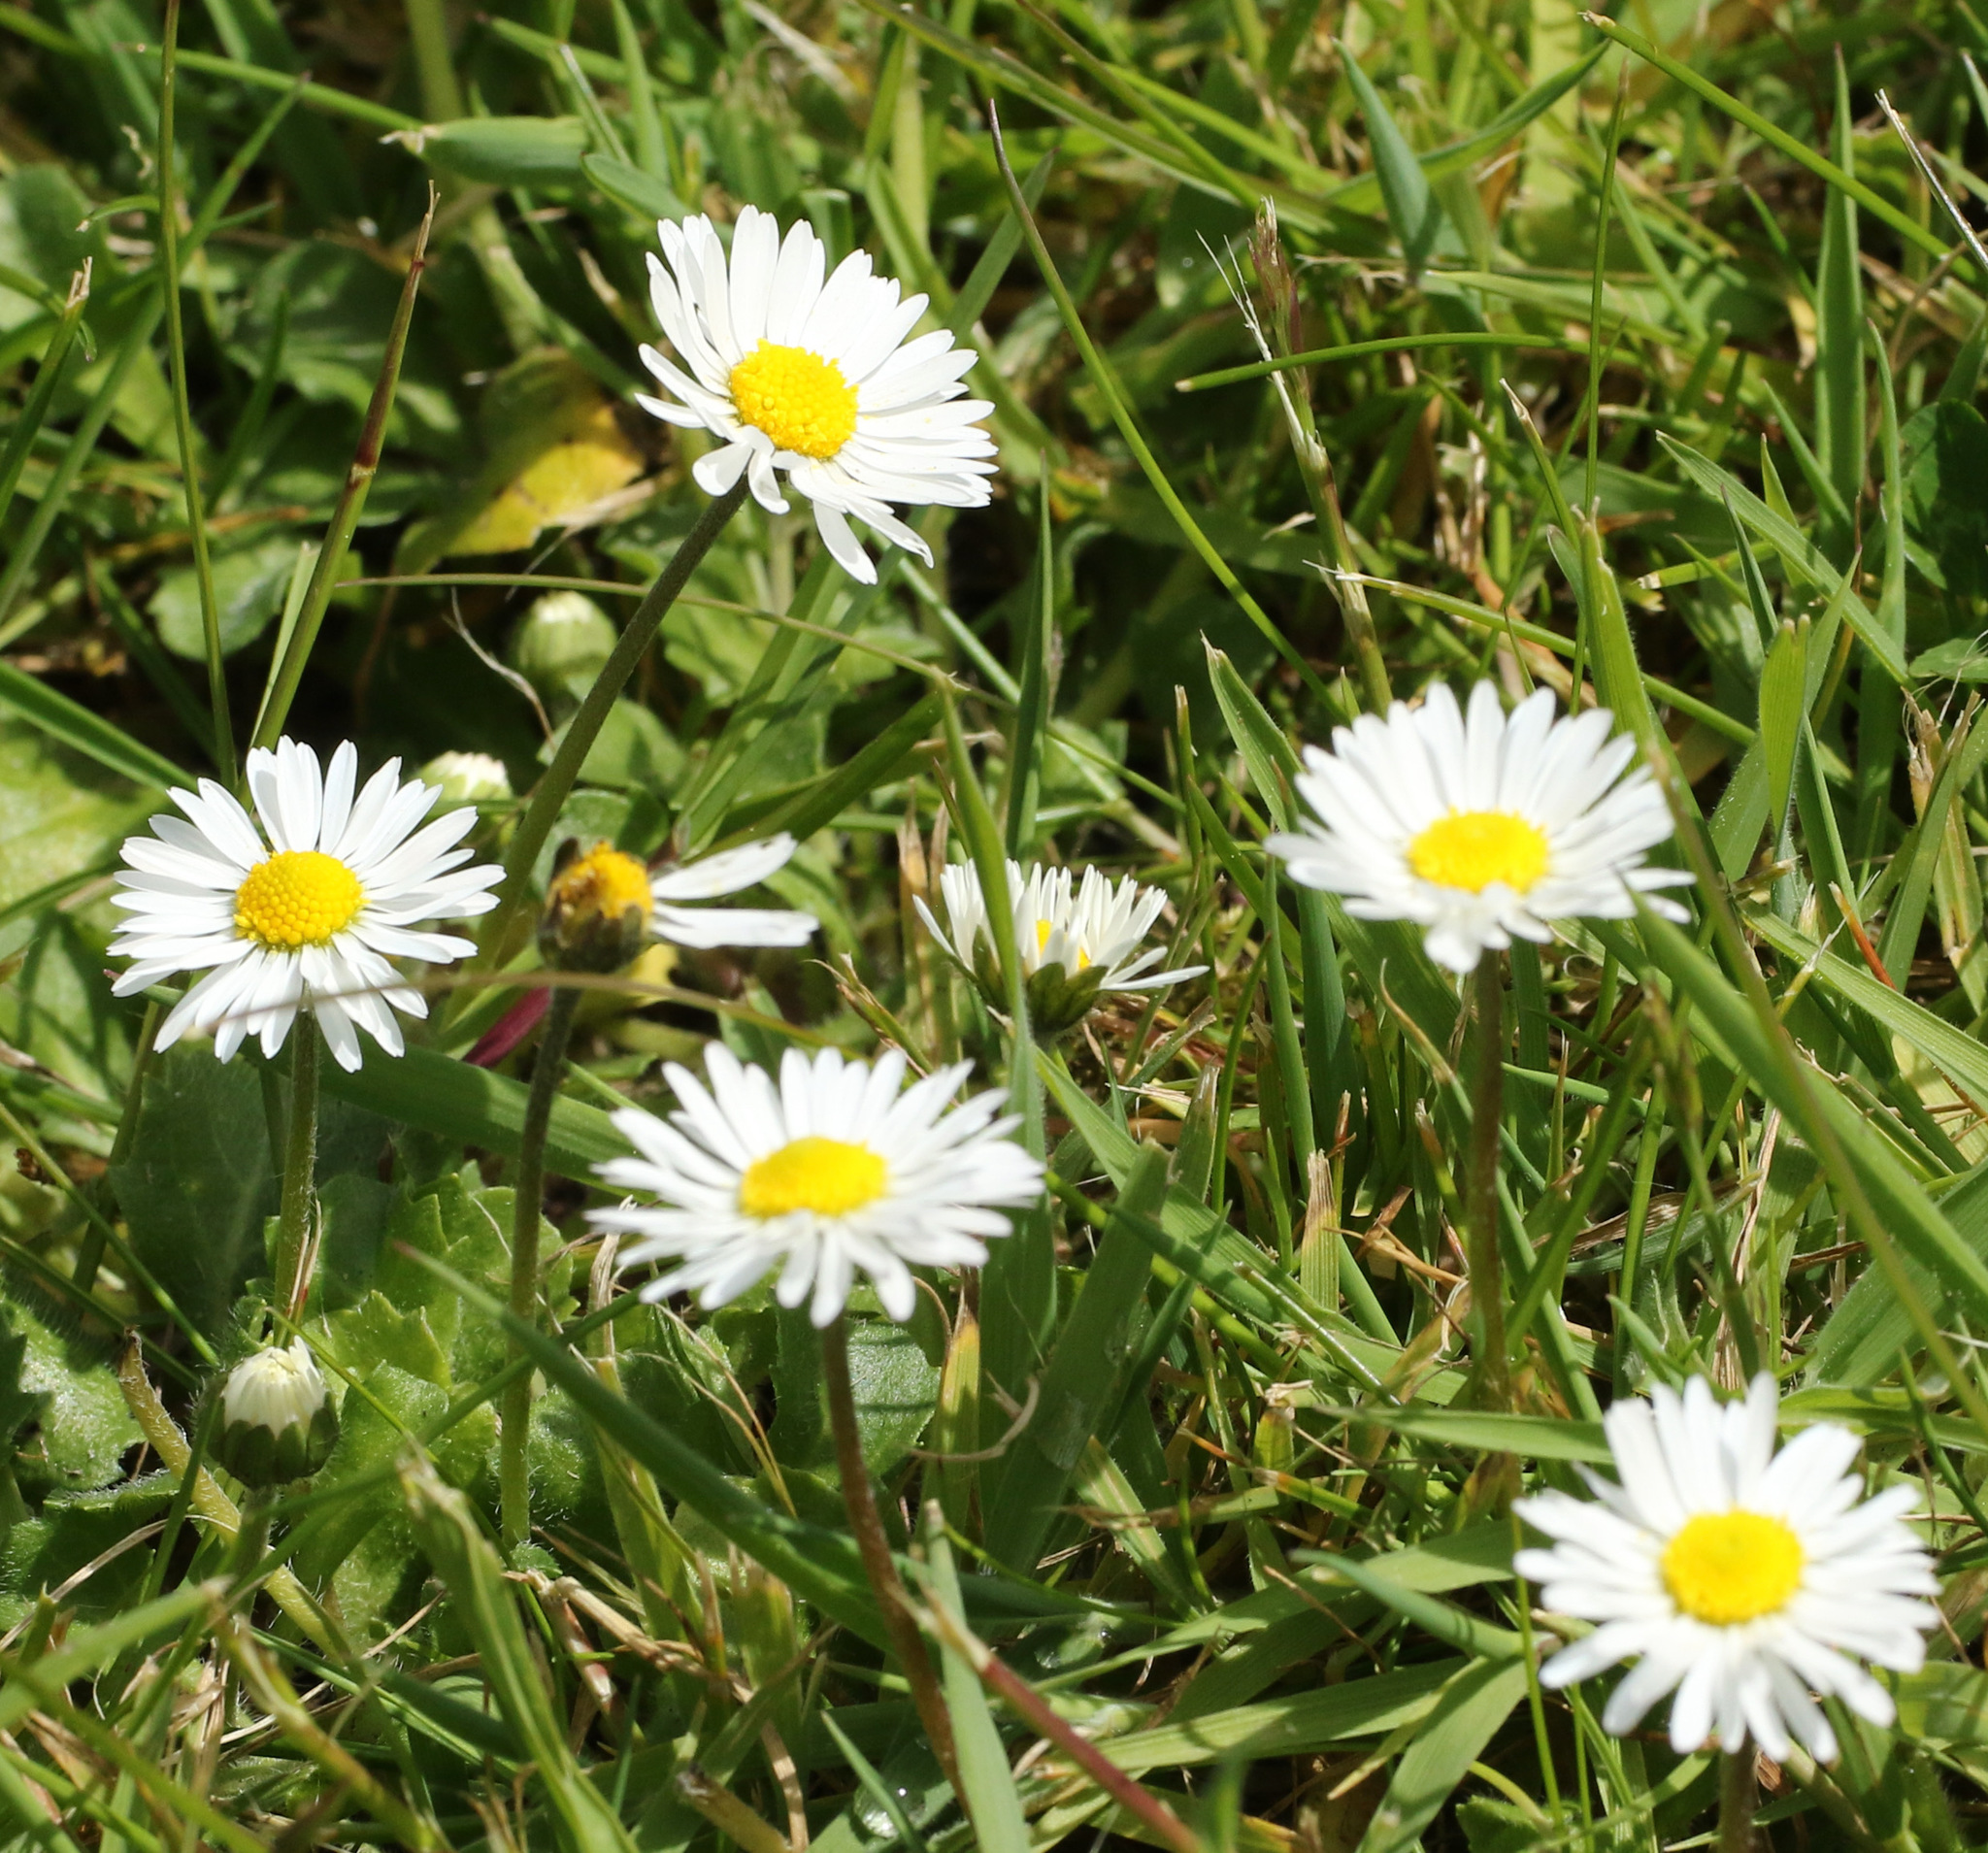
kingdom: Plantae
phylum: Tracheophyta
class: Magnoliopsida
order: Asterales
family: Asteraceae
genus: Bellis
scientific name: Bellis perennis
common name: Lawndaisy
